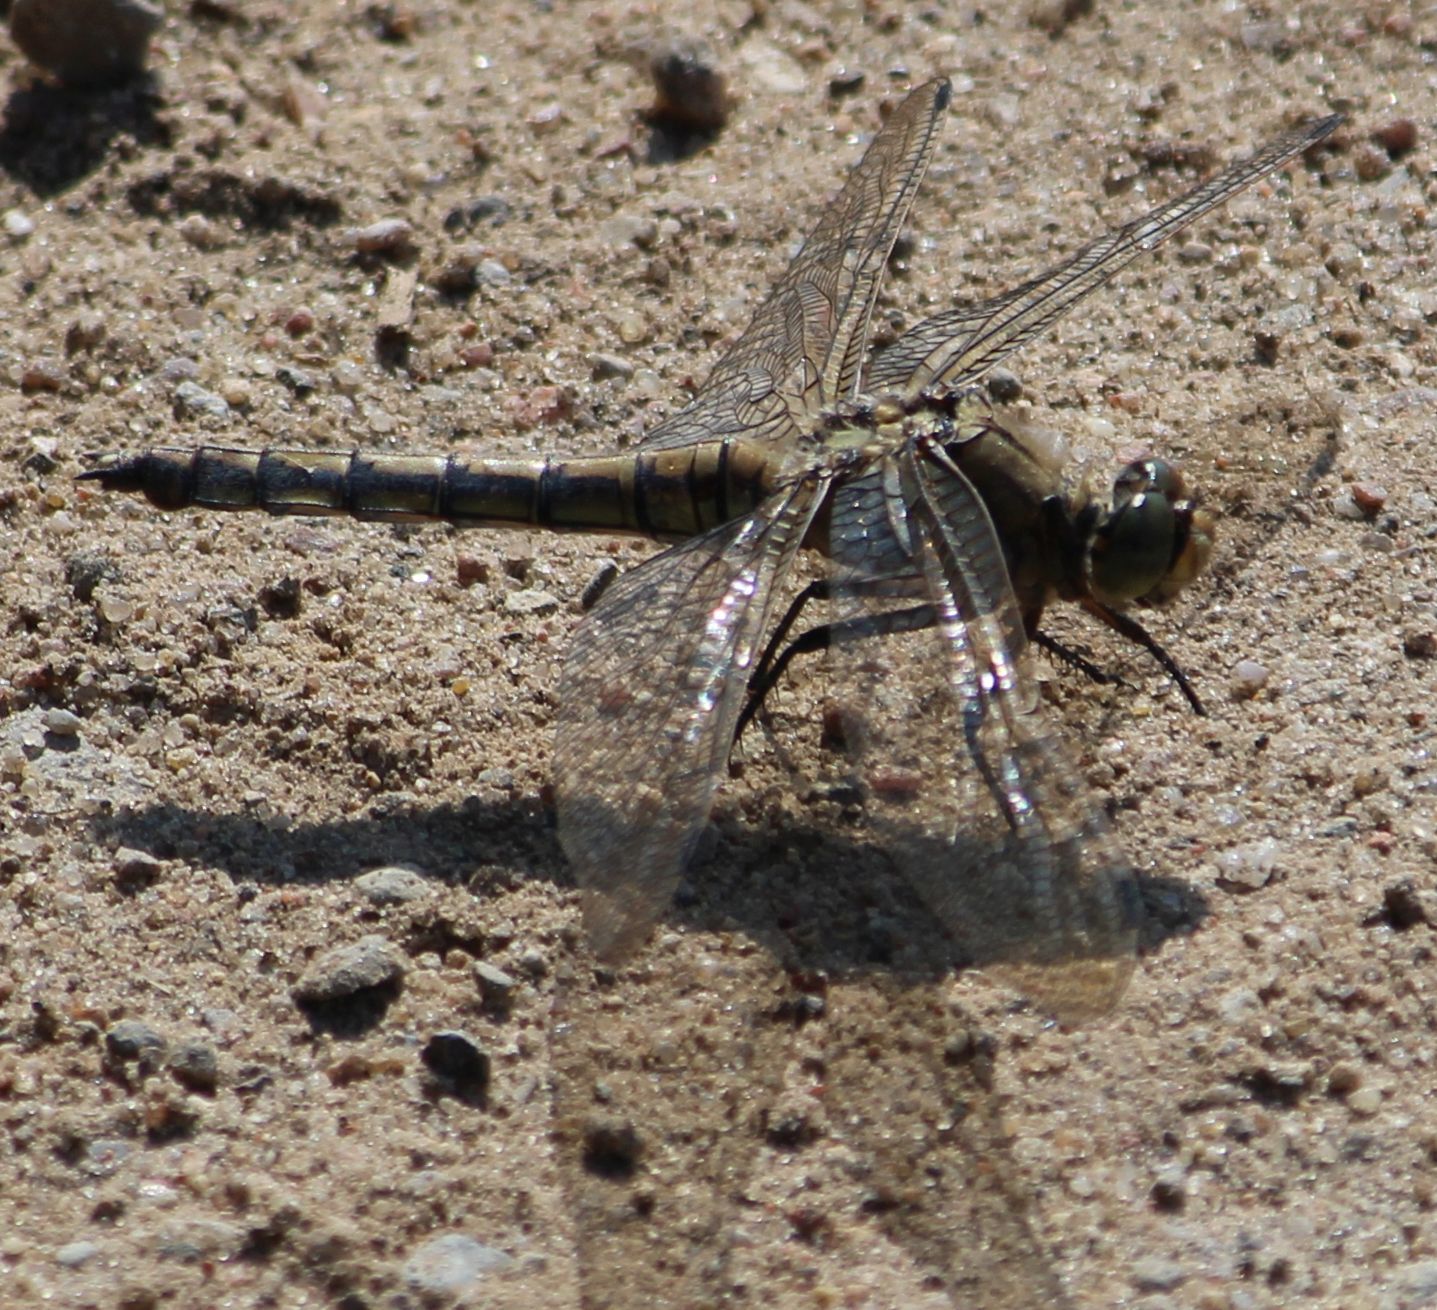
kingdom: Animalia
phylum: Arthropoda
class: Insecta
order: Odonata
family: Libellulidae
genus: Orthetrum
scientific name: Orthetrum cancellatum
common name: Black-tailed skimmer
